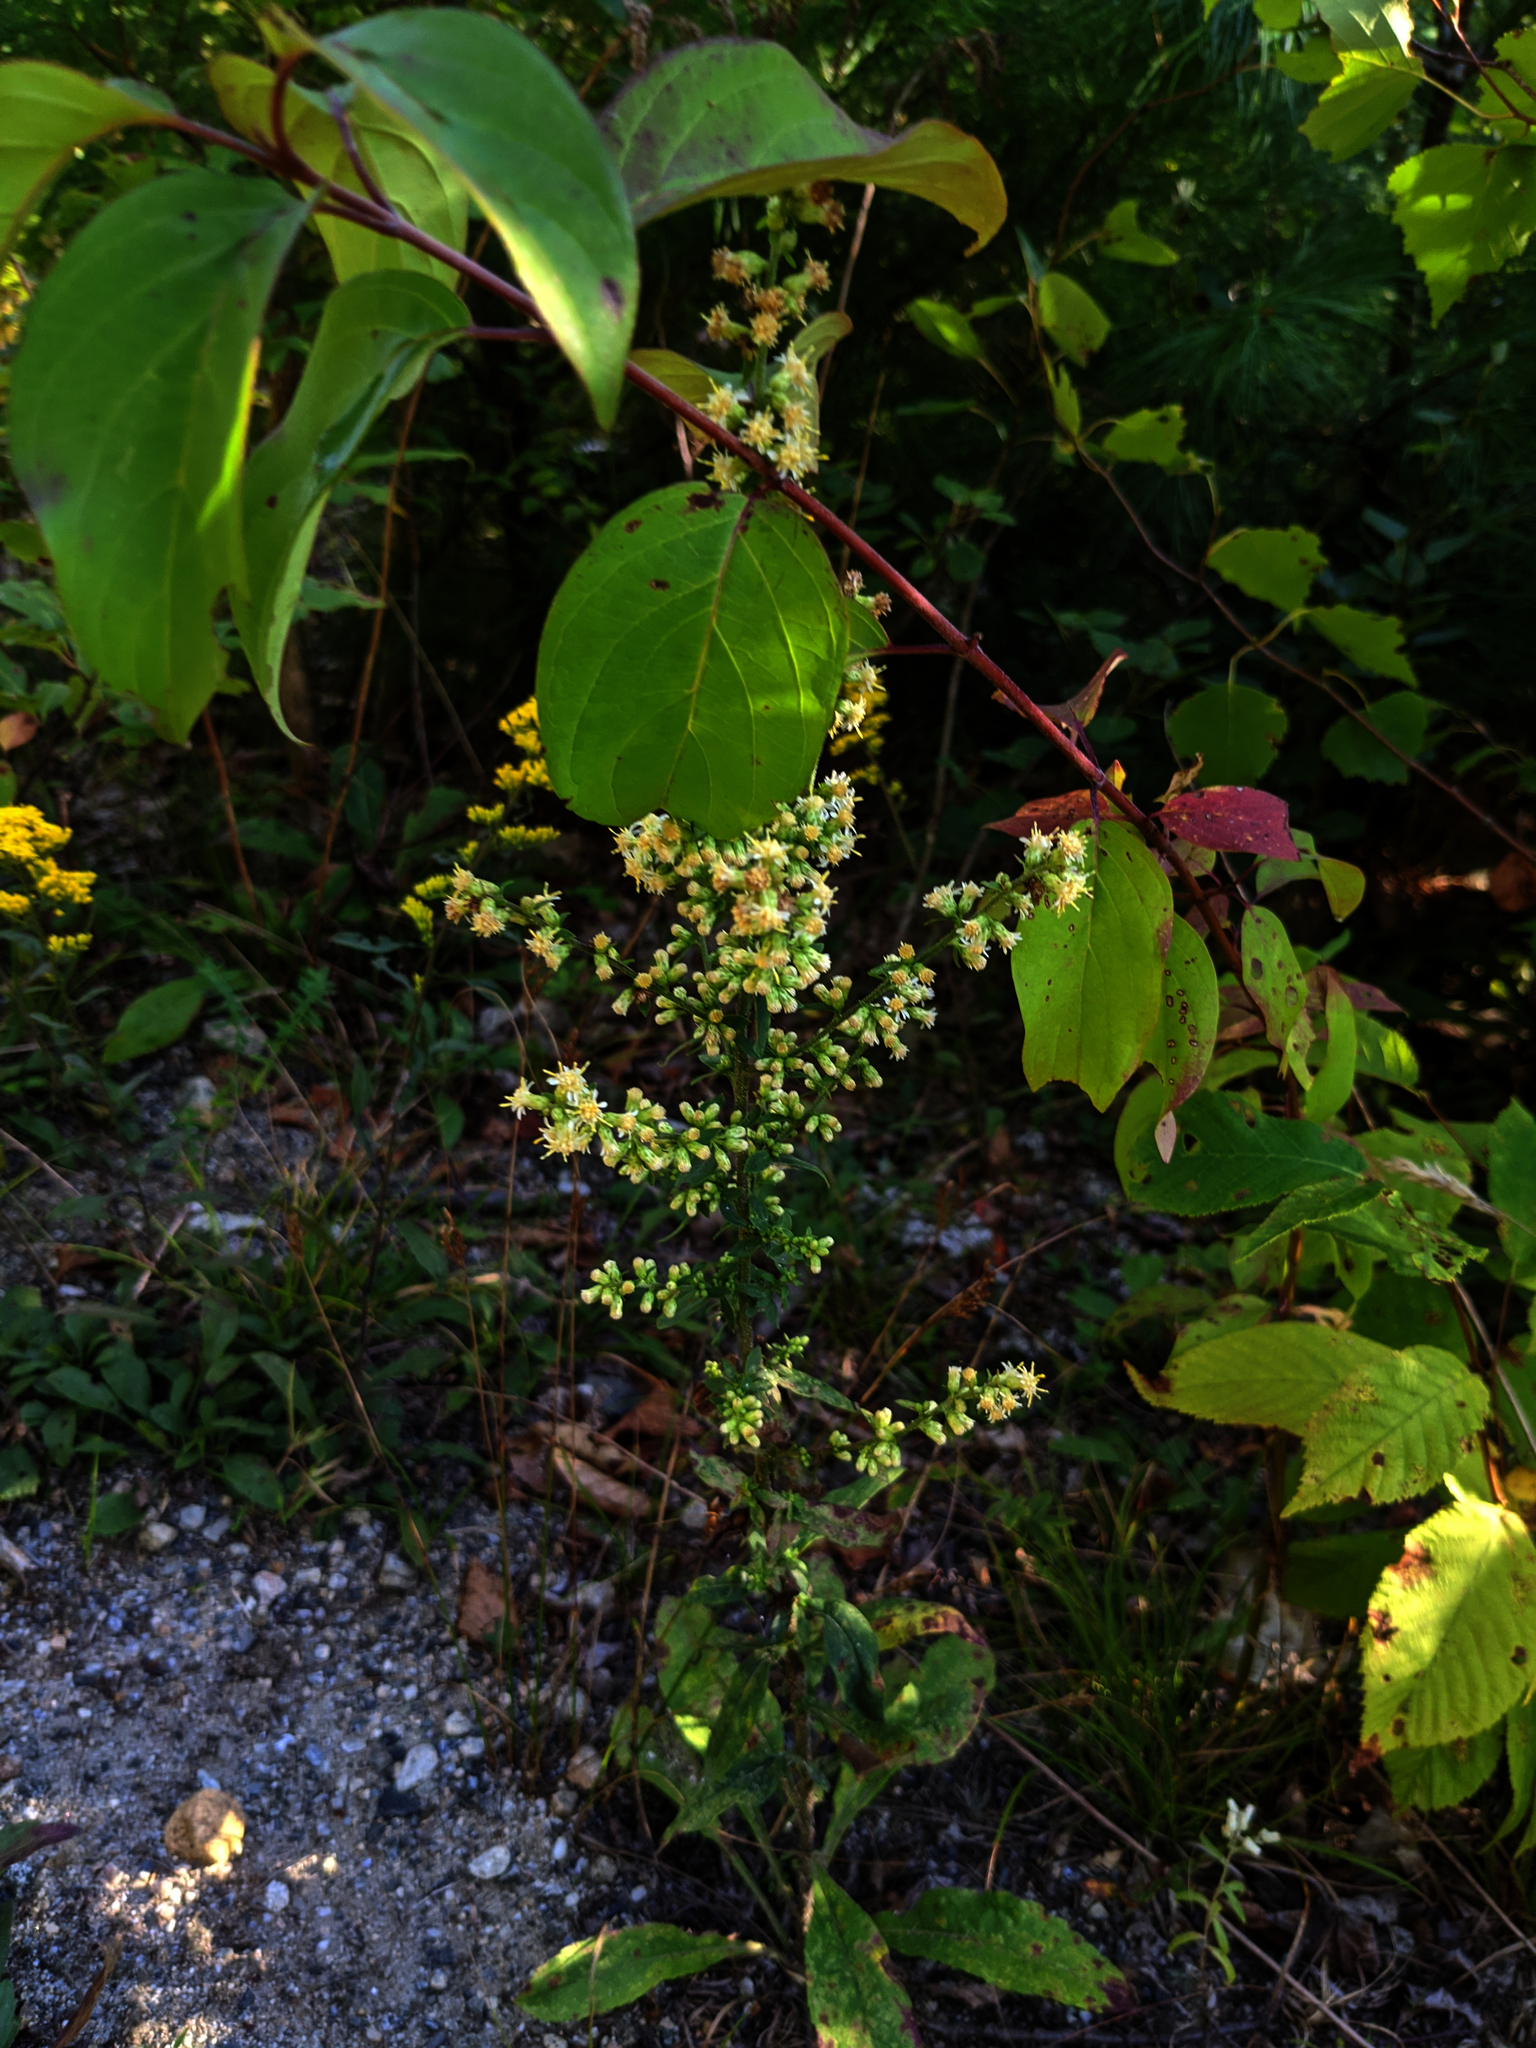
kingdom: Plantae
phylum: Tracheophyta
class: Magnoliopsida
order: Asterales
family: Asteraceae
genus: Solidago
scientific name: Solidago bicolor
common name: Silverrod
